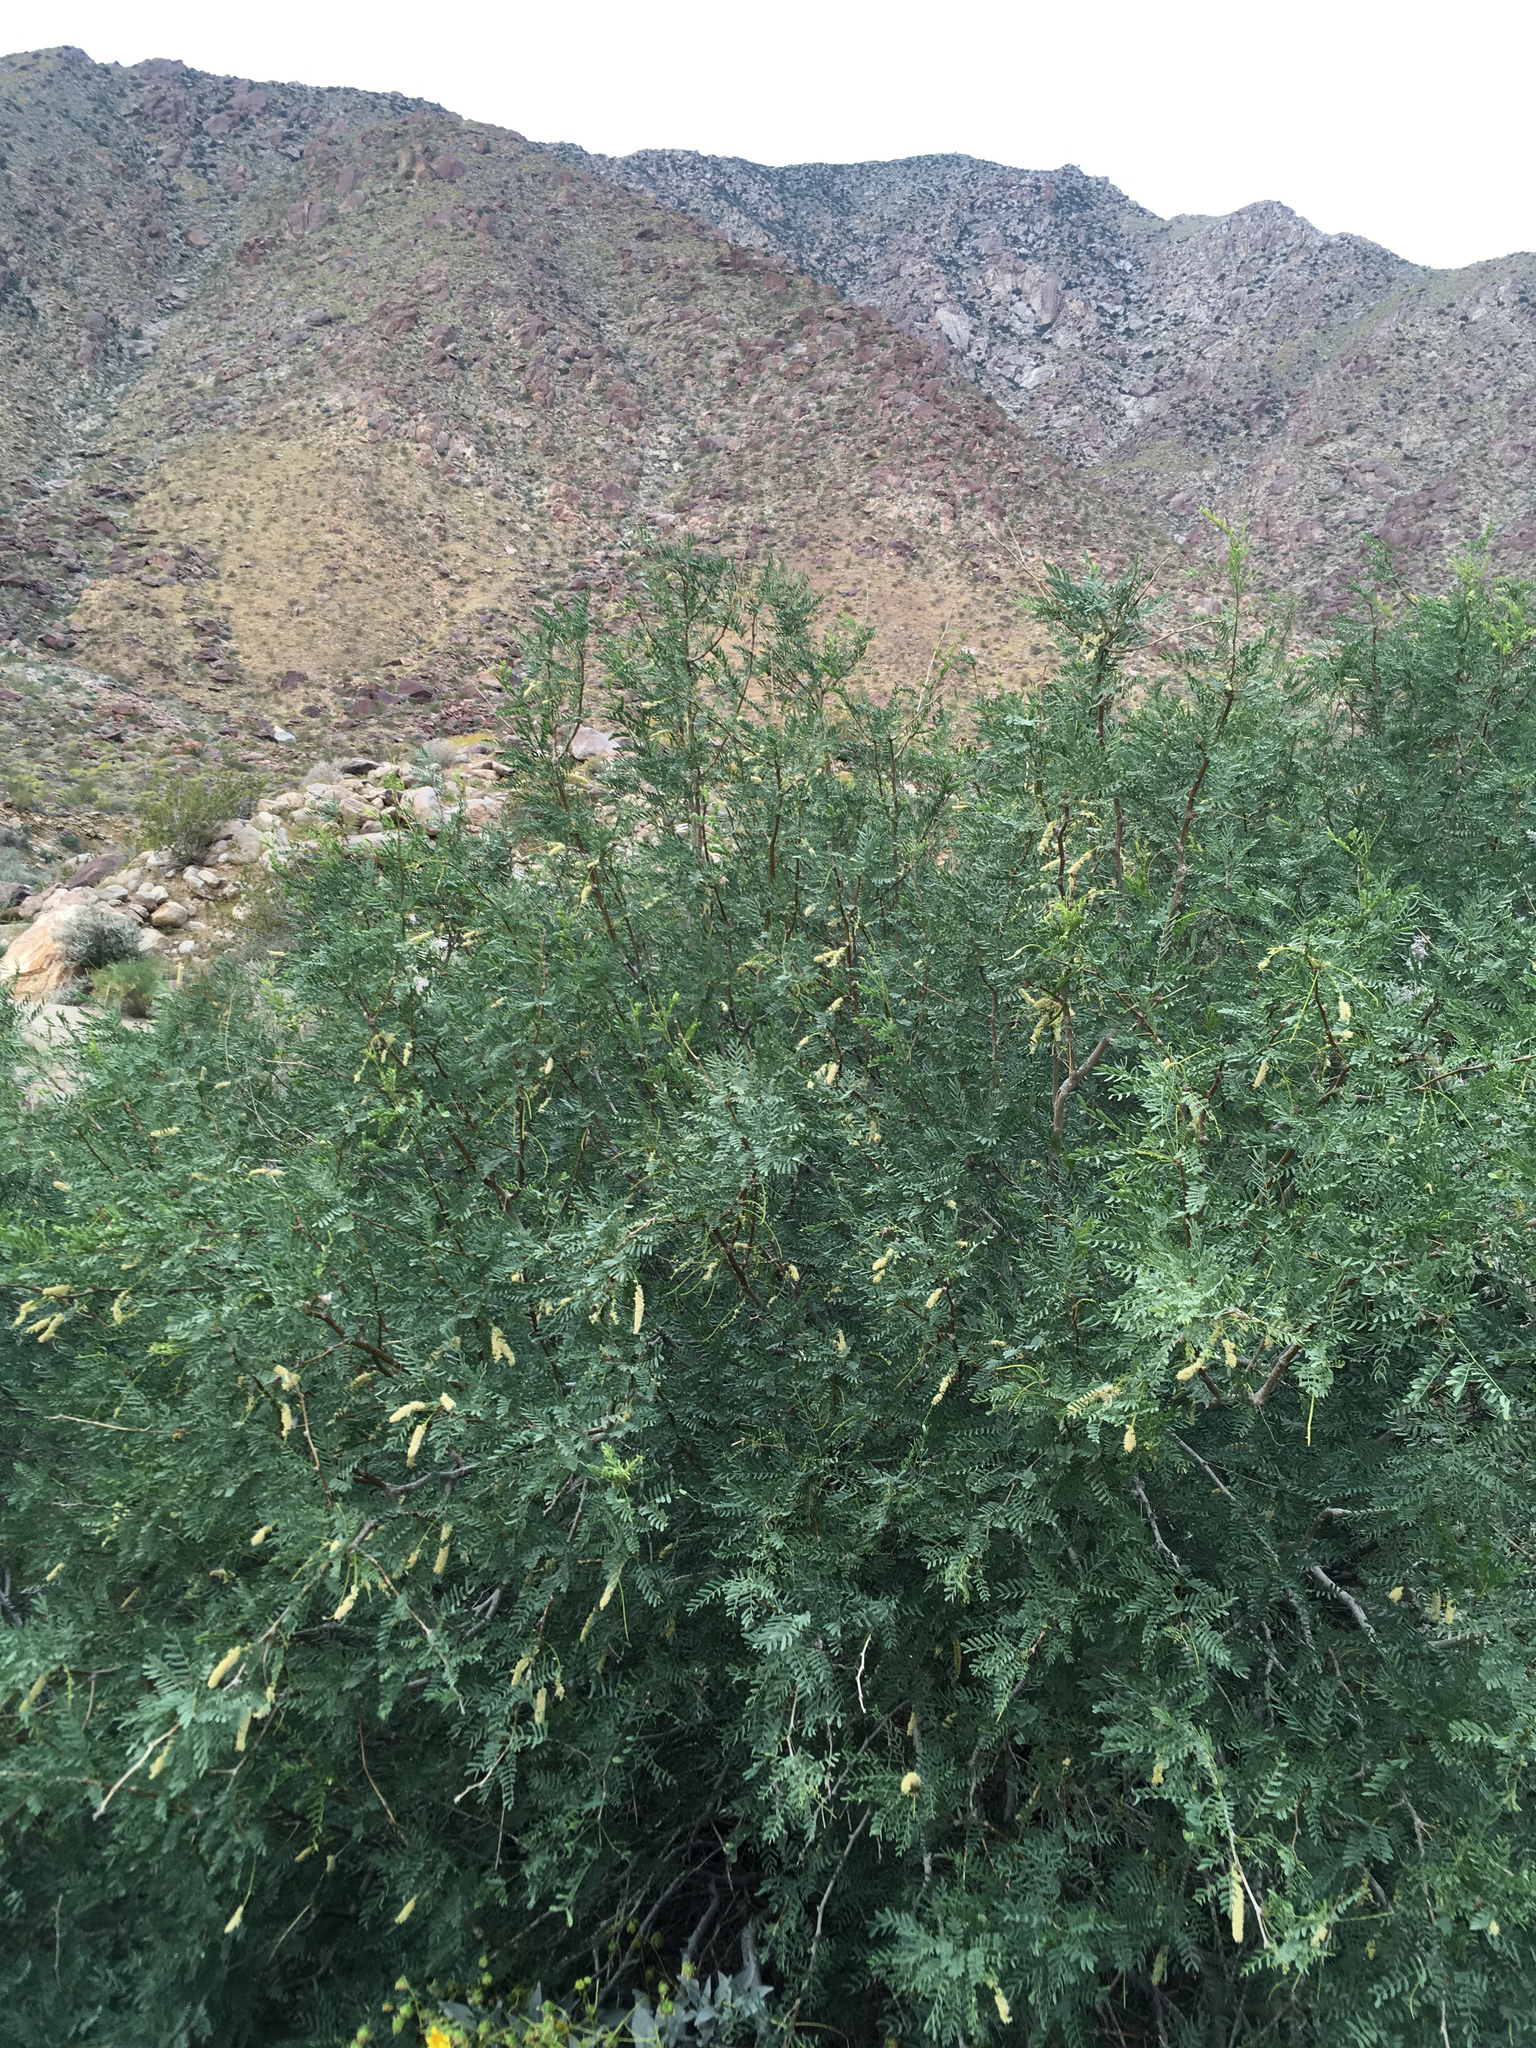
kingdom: Plantae
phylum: Tracheophyta
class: Magnoliopsida
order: Fabales
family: Fabaceae
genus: Prosopis
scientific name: Prosopis pubescens
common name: Screw-bean
